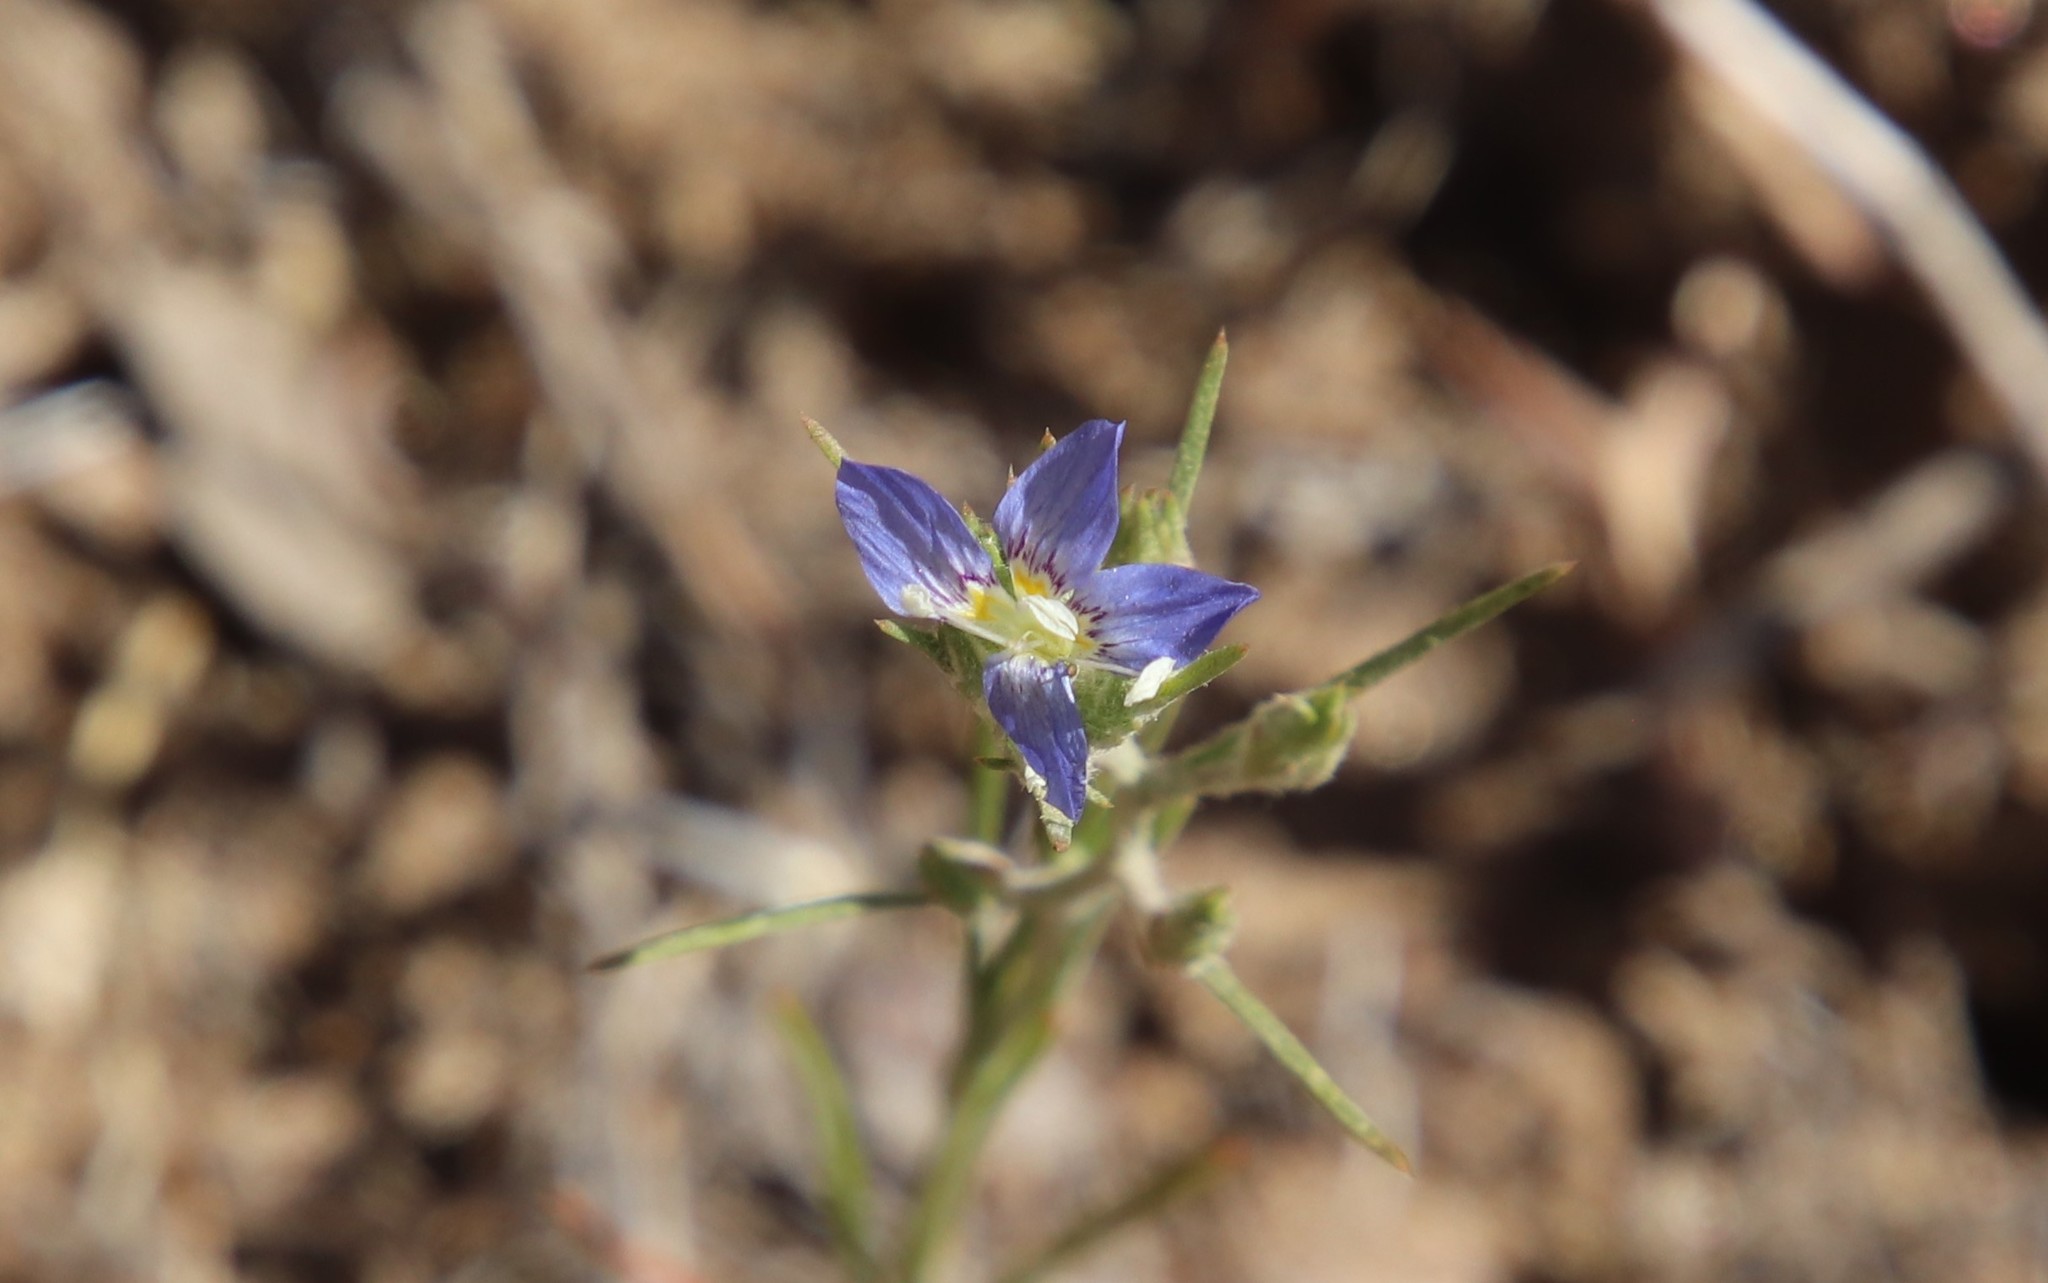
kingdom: Plantae
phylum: Tracheophyta
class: Magnoliopsida
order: Ericales
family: Polemoniaceae
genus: Eriastrum
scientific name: Eriastrum sapphirinum
